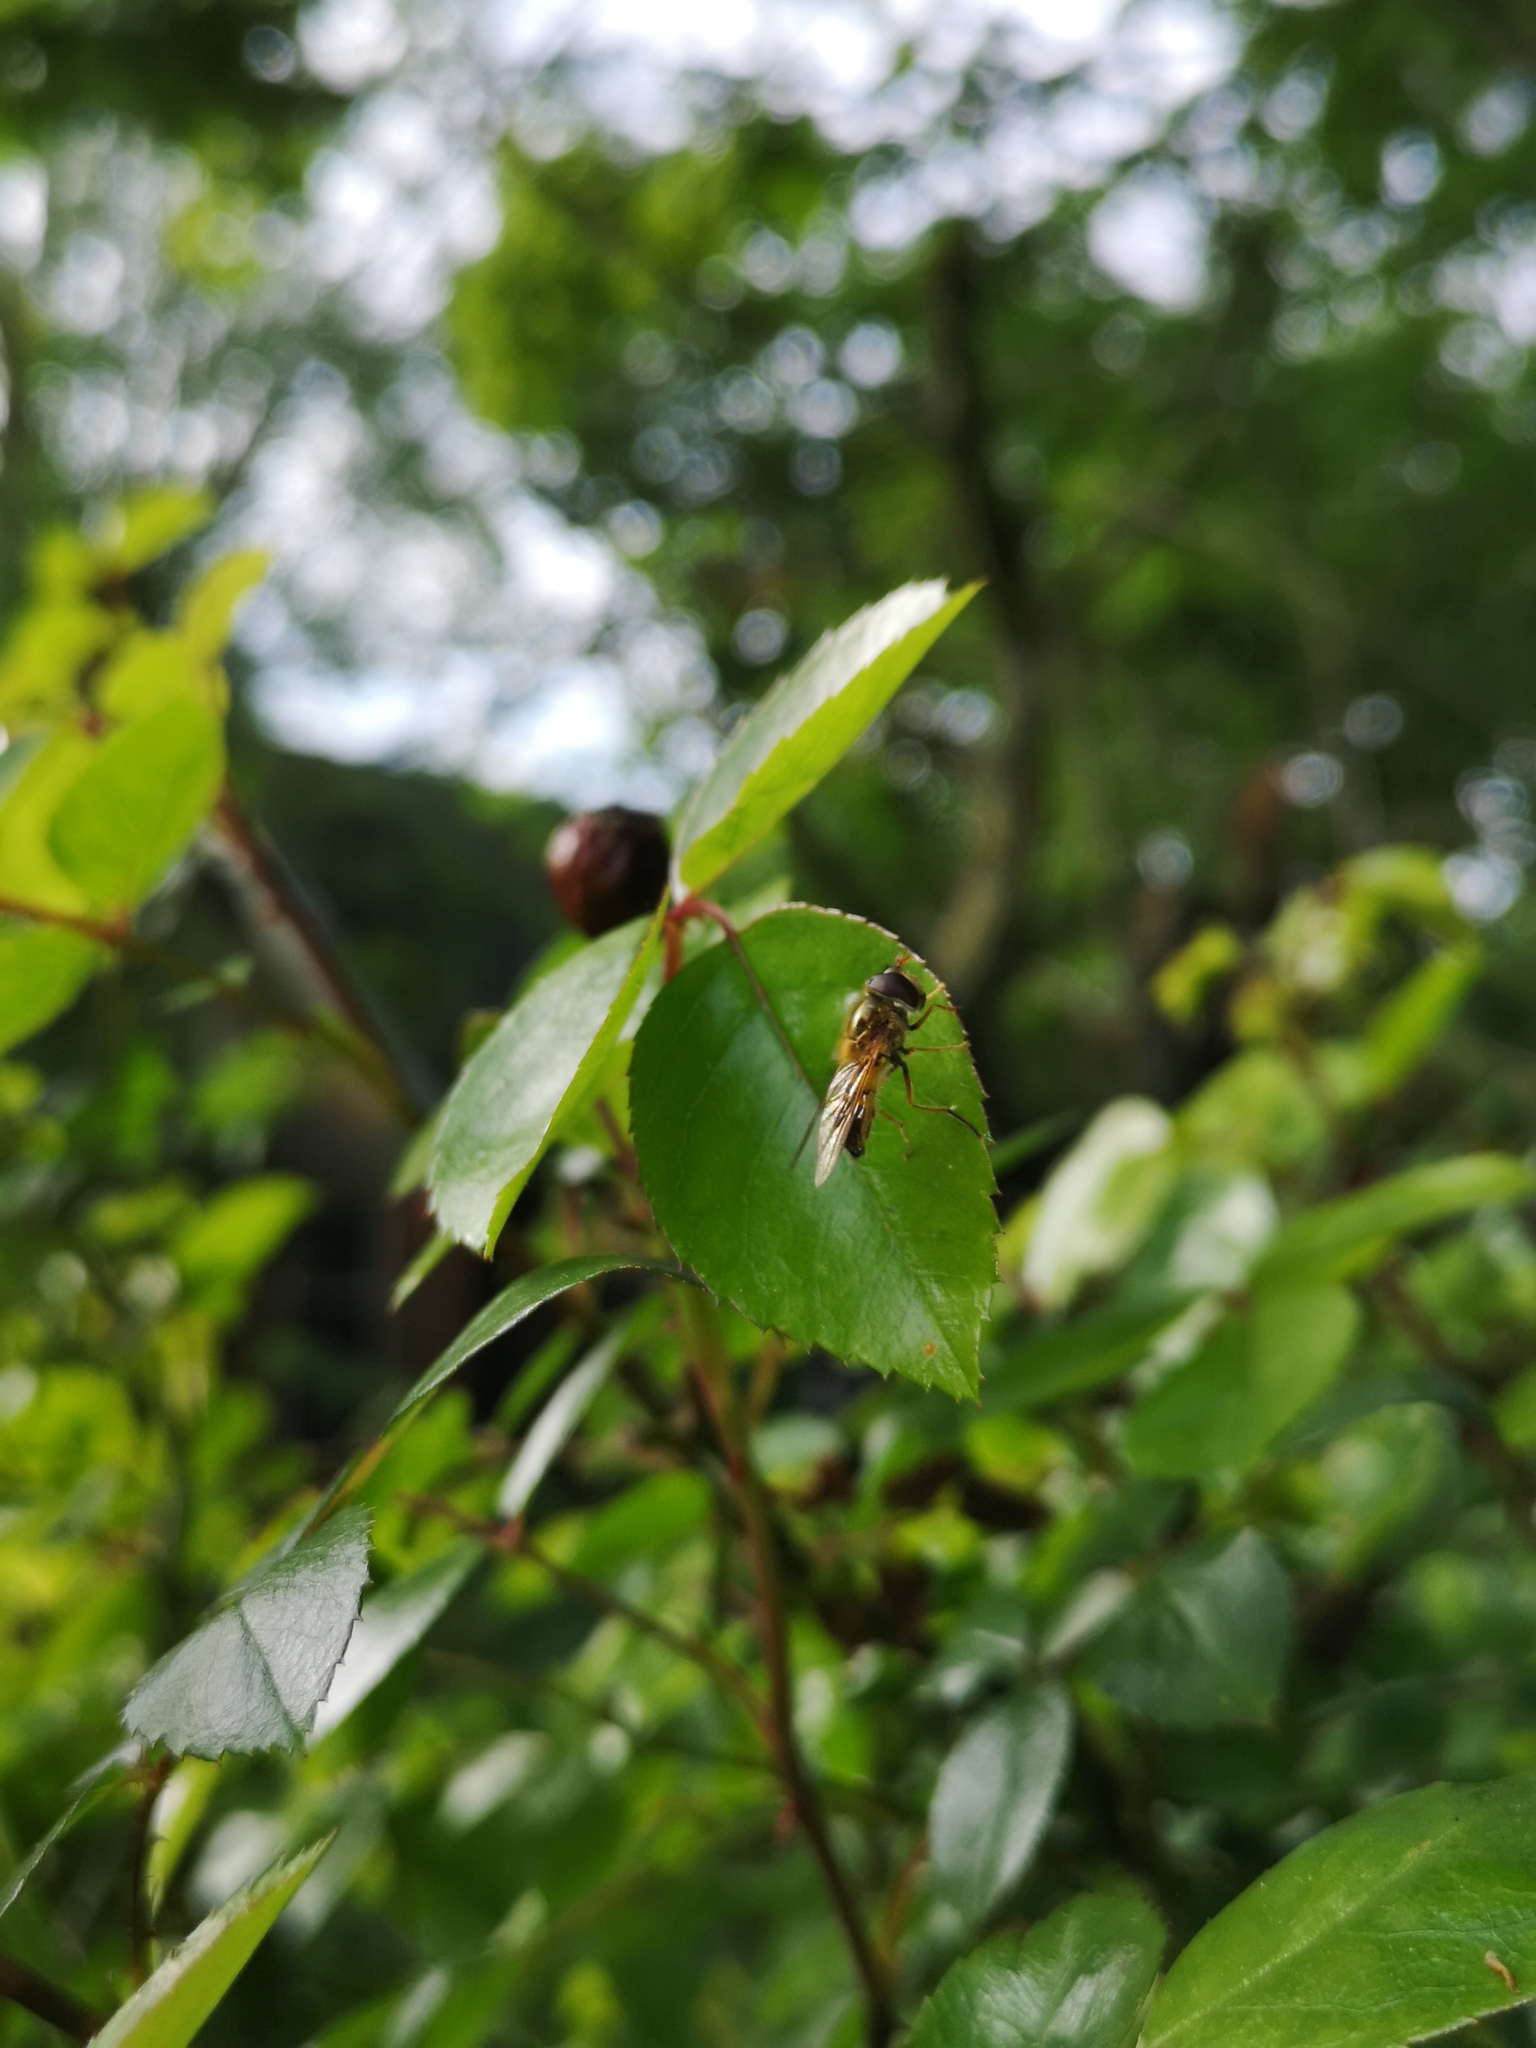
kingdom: Animalia
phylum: Arthropoda
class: Insecta
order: Diptera
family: Syrphidae
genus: Epistrophe
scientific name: Epistrophe eligans
